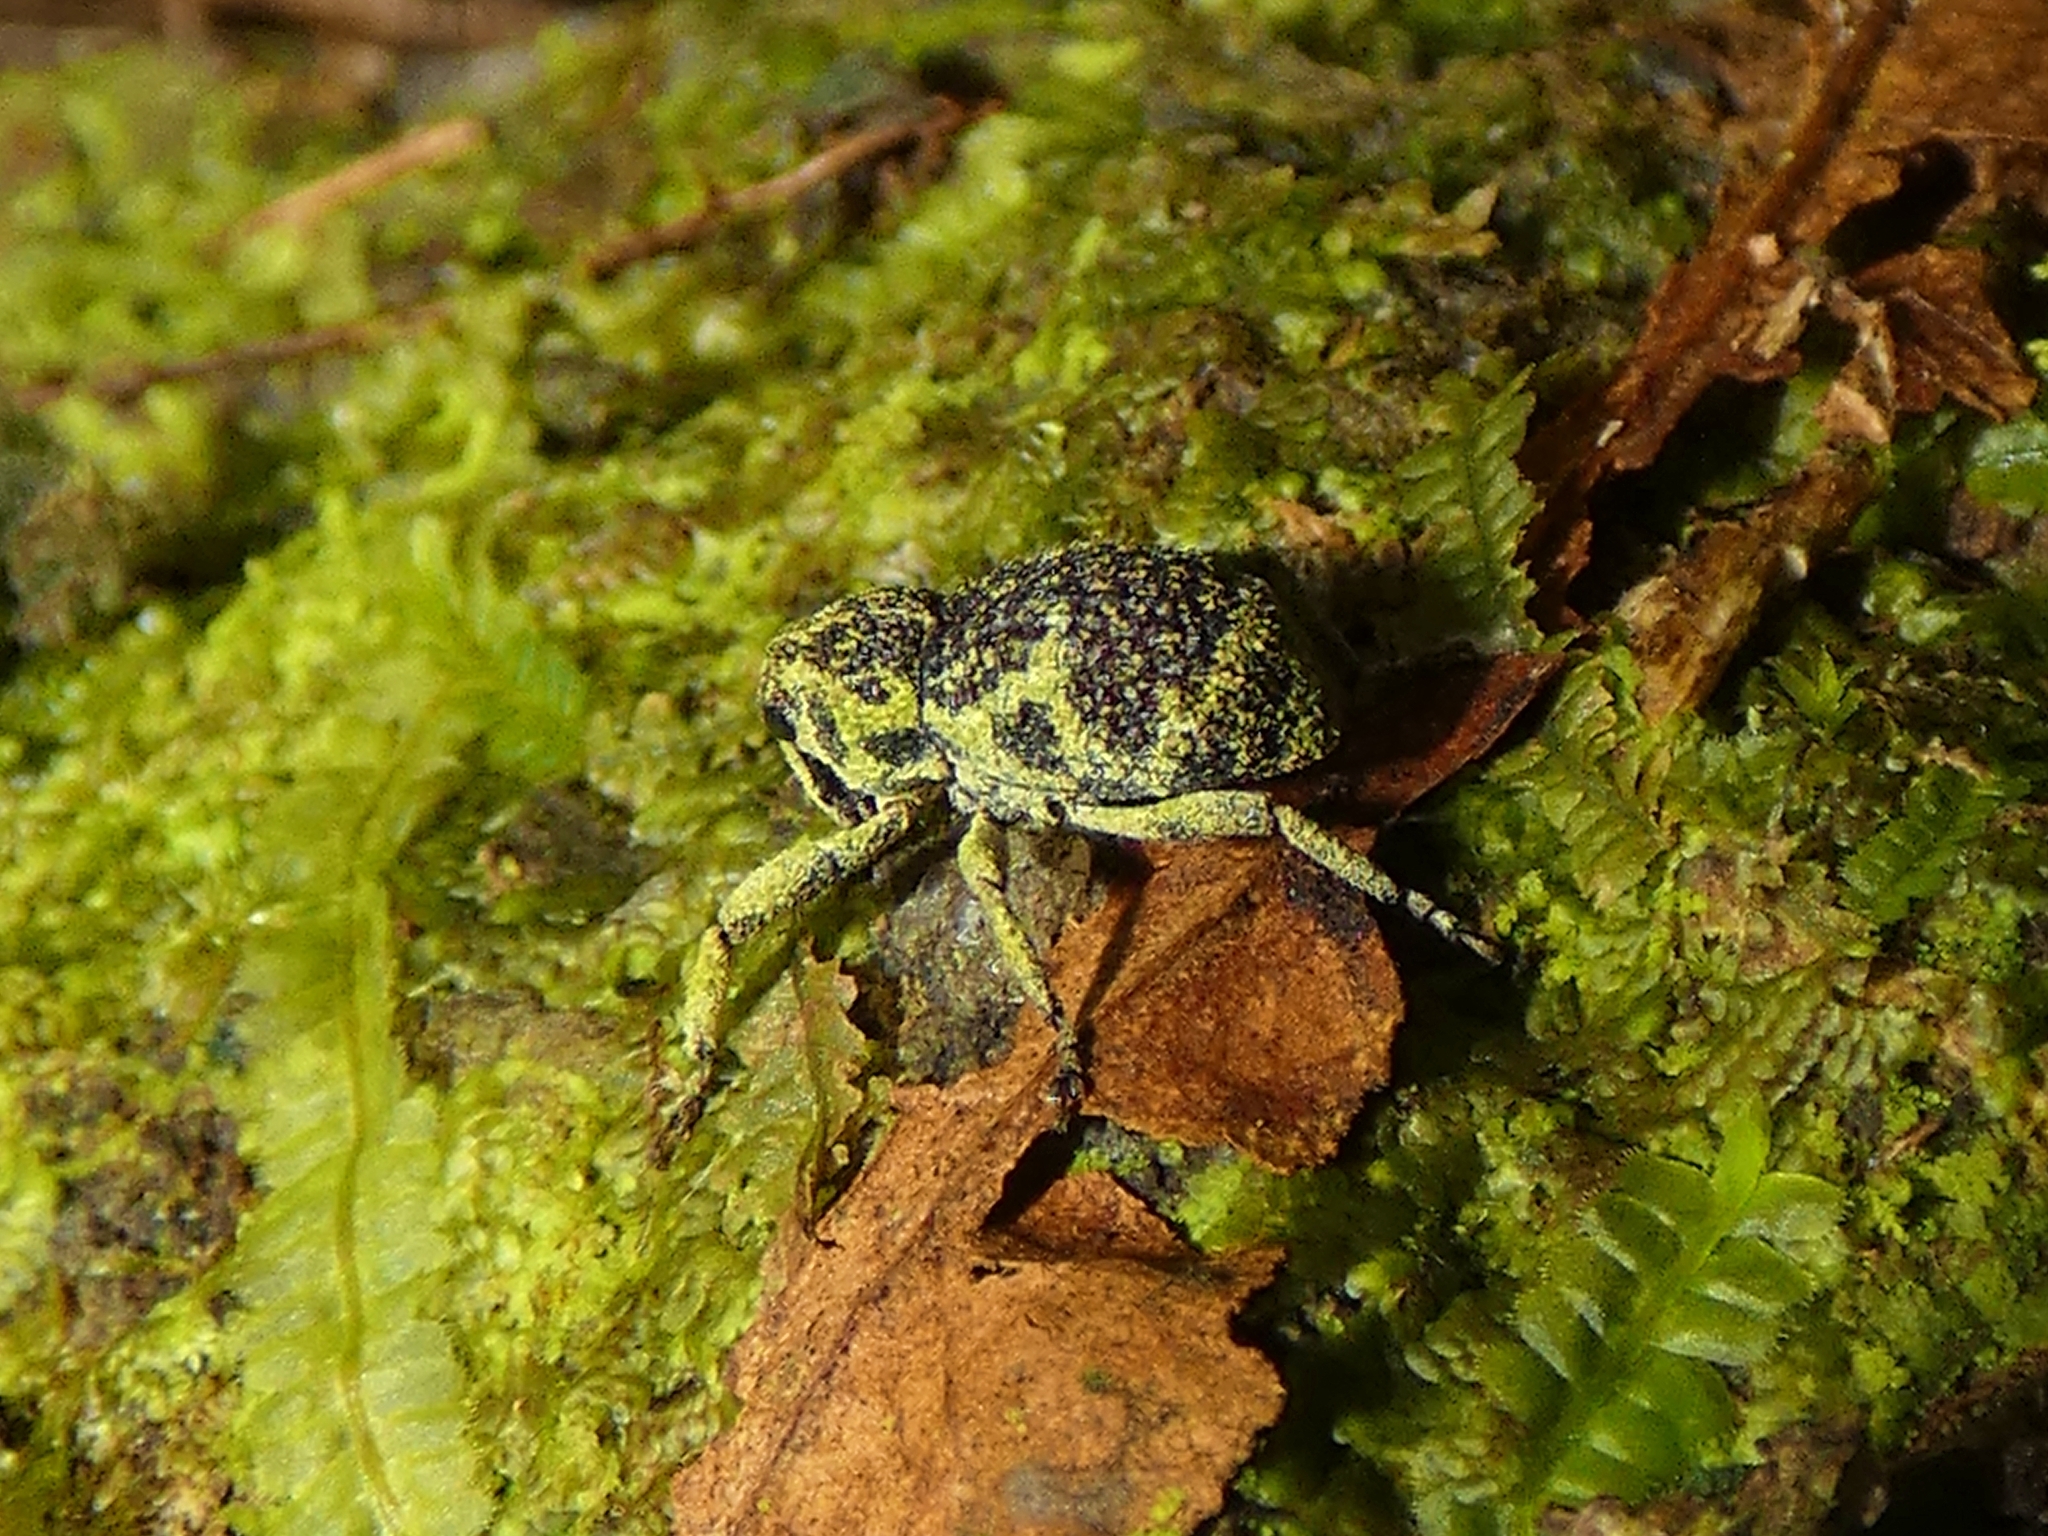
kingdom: Animalia
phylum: Arthropoda
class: Insecta
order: Coleoptera
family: Curculionidae
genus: Pteroporopterus
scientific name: Pteroporopterus lacunosus
